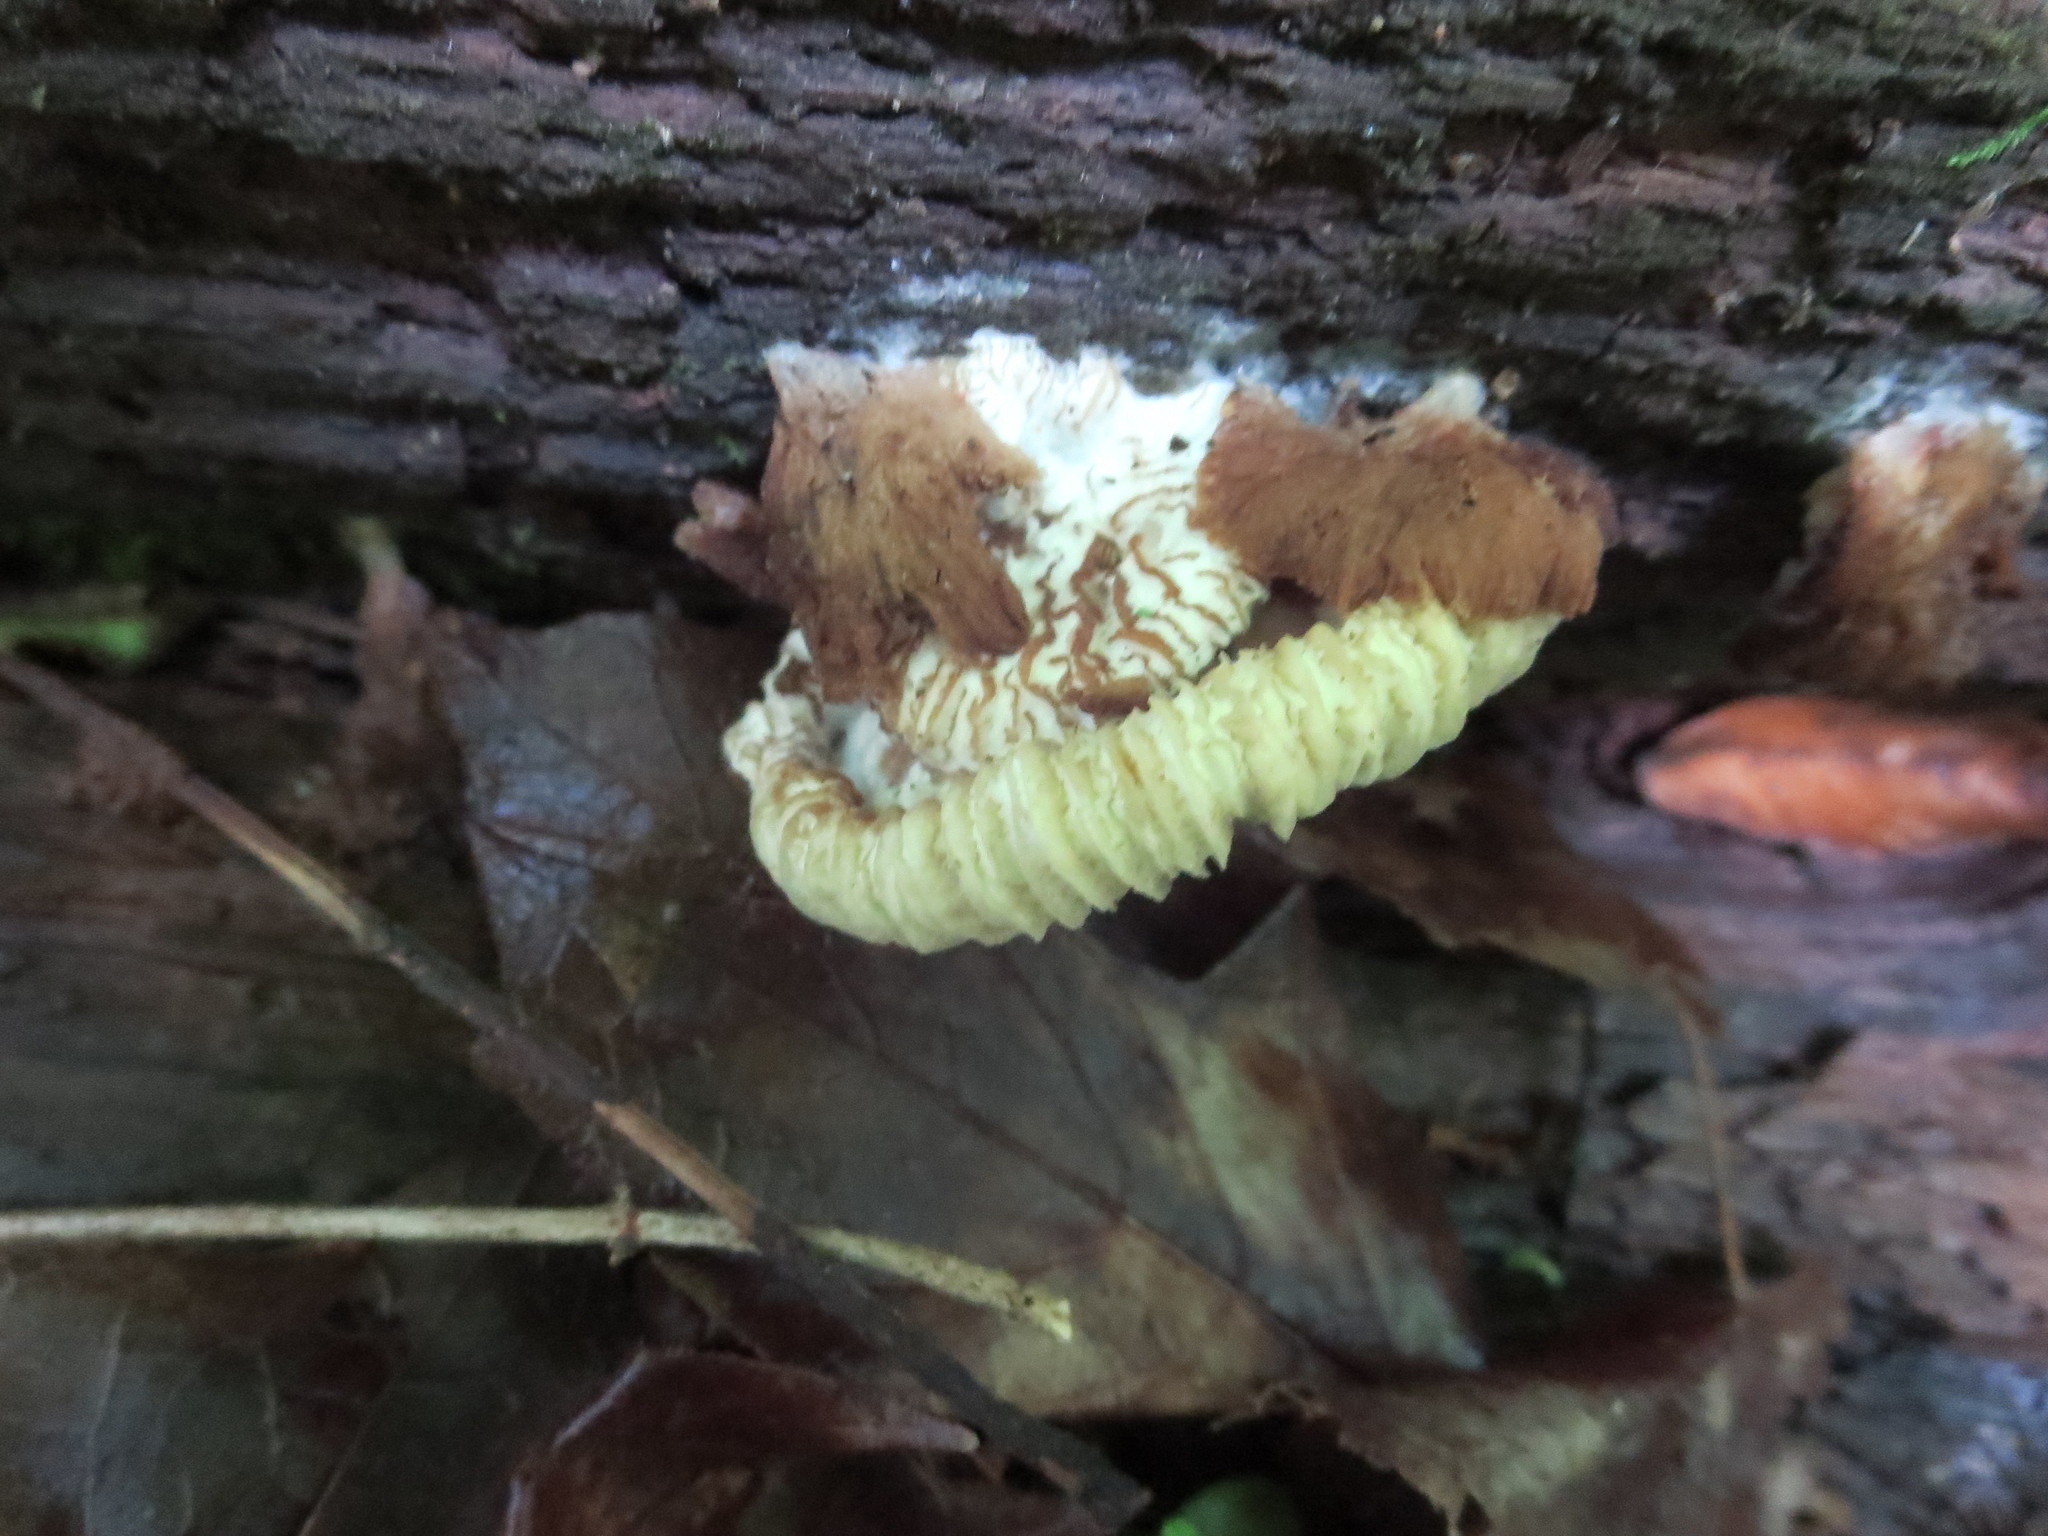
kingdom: Fungi
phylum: Ascomycota
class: Sordariomycetes
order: Hypocreales
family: Bionectriaceae
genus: Nectriopsis
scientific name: Nectriopsis tremellicola
